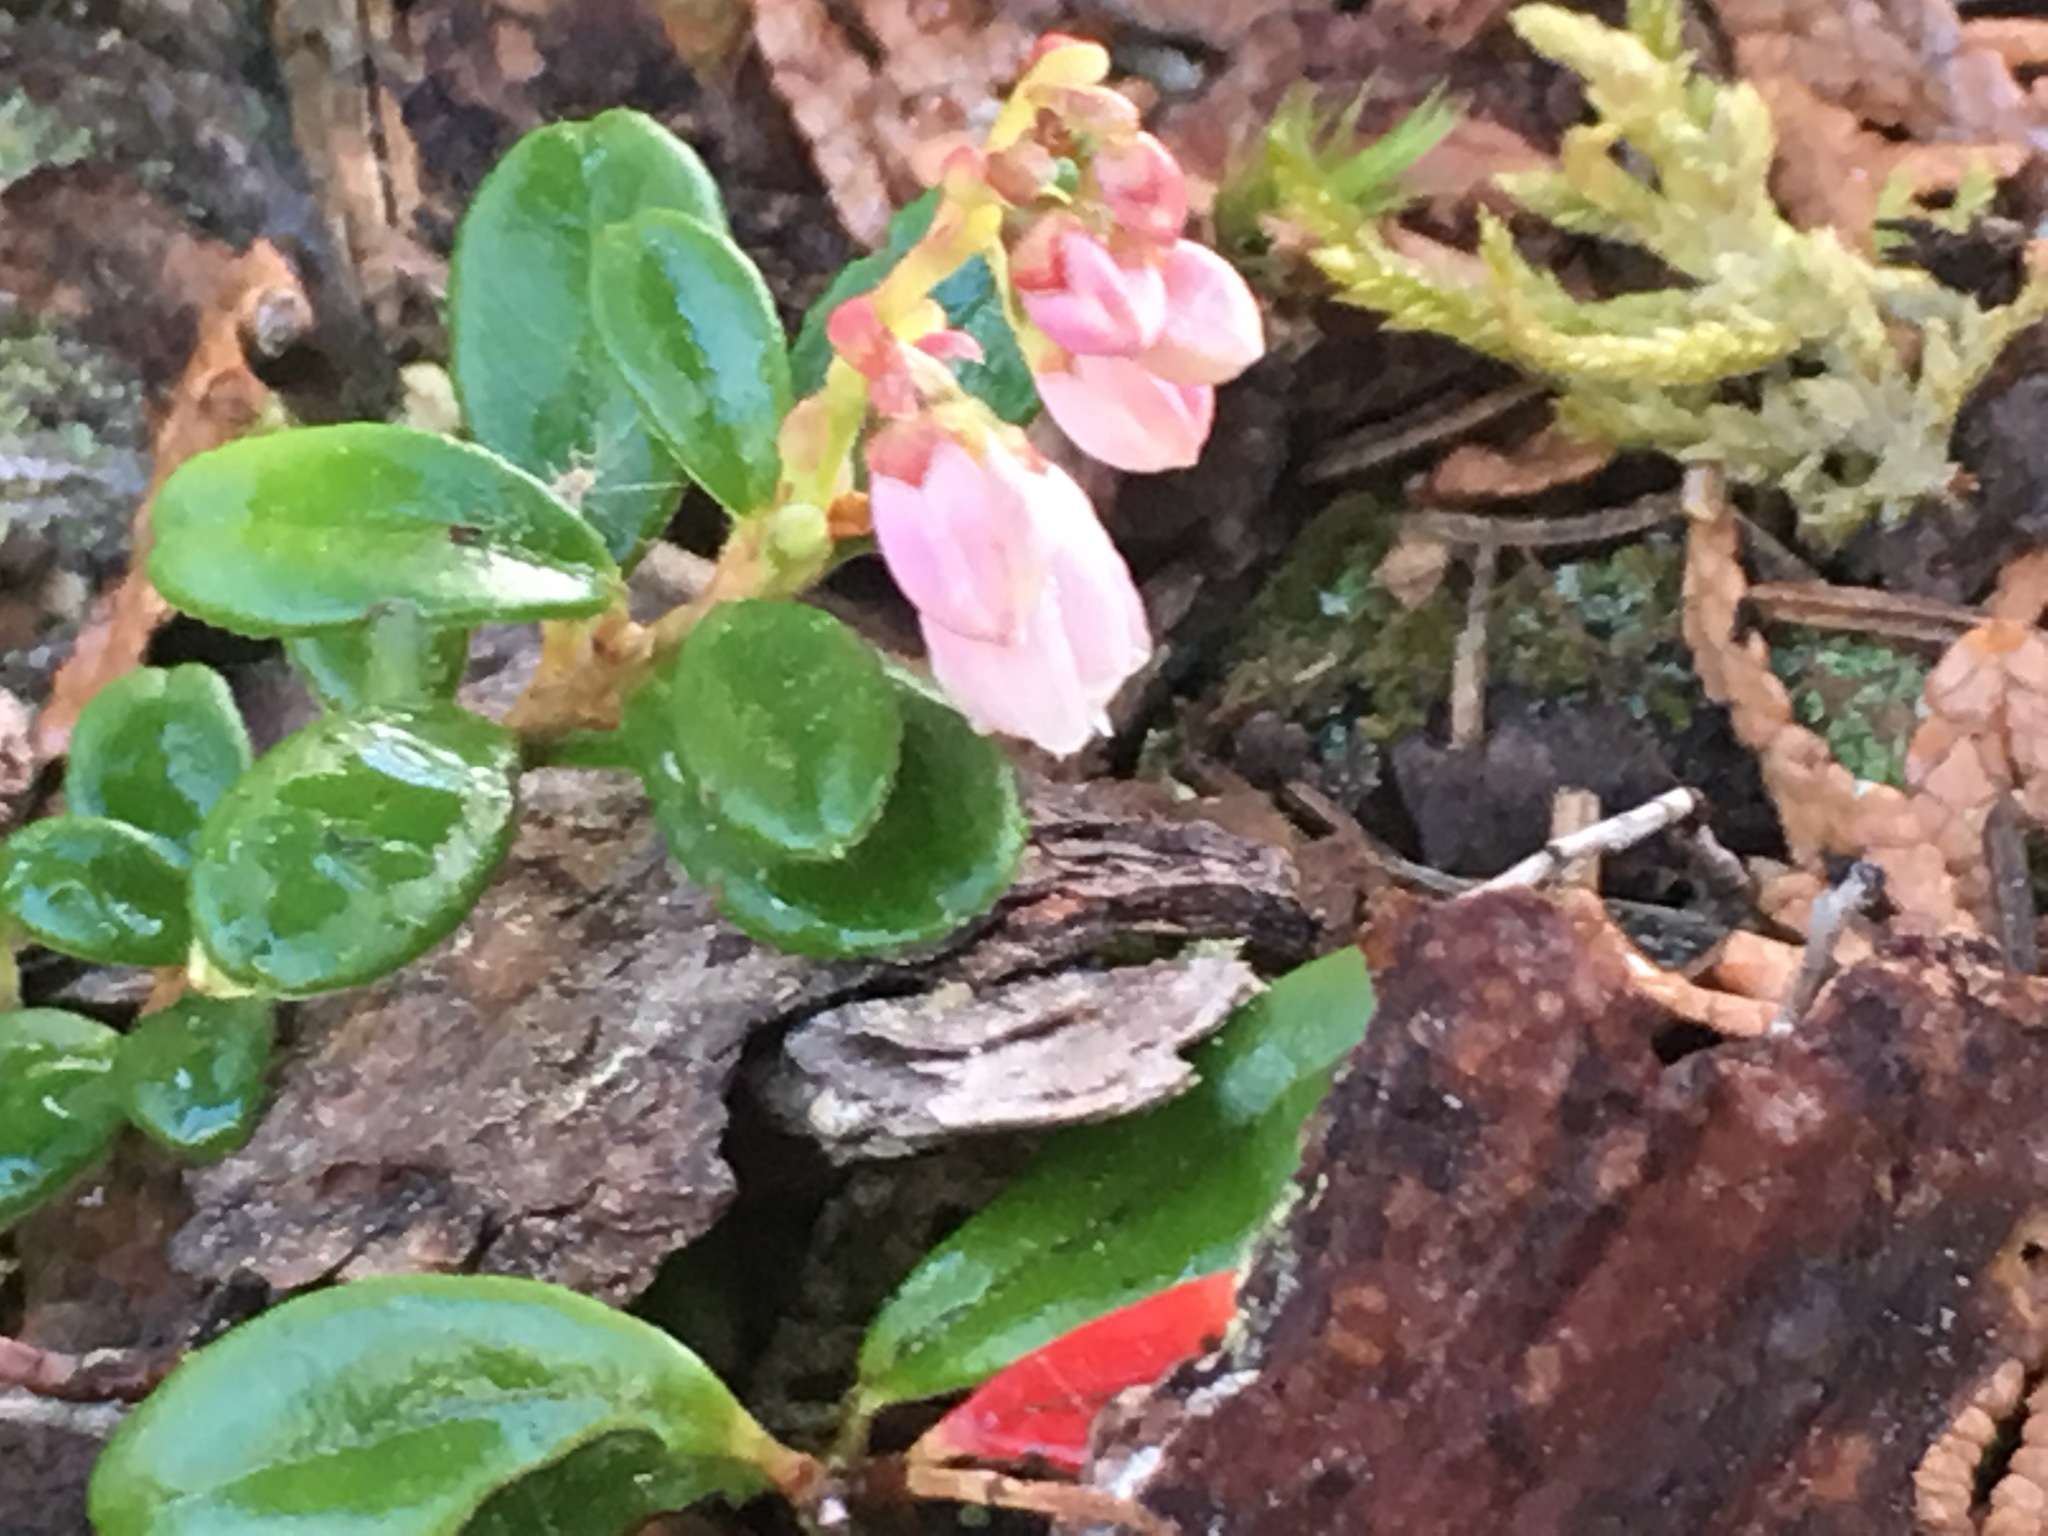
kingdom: Plantae
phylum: Tracheophyta
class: Magnoliopsida
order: Ericales
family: Ericaceae
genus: Vaccinium
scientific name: Vaccinium vitis-idaea
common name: Cowberry
